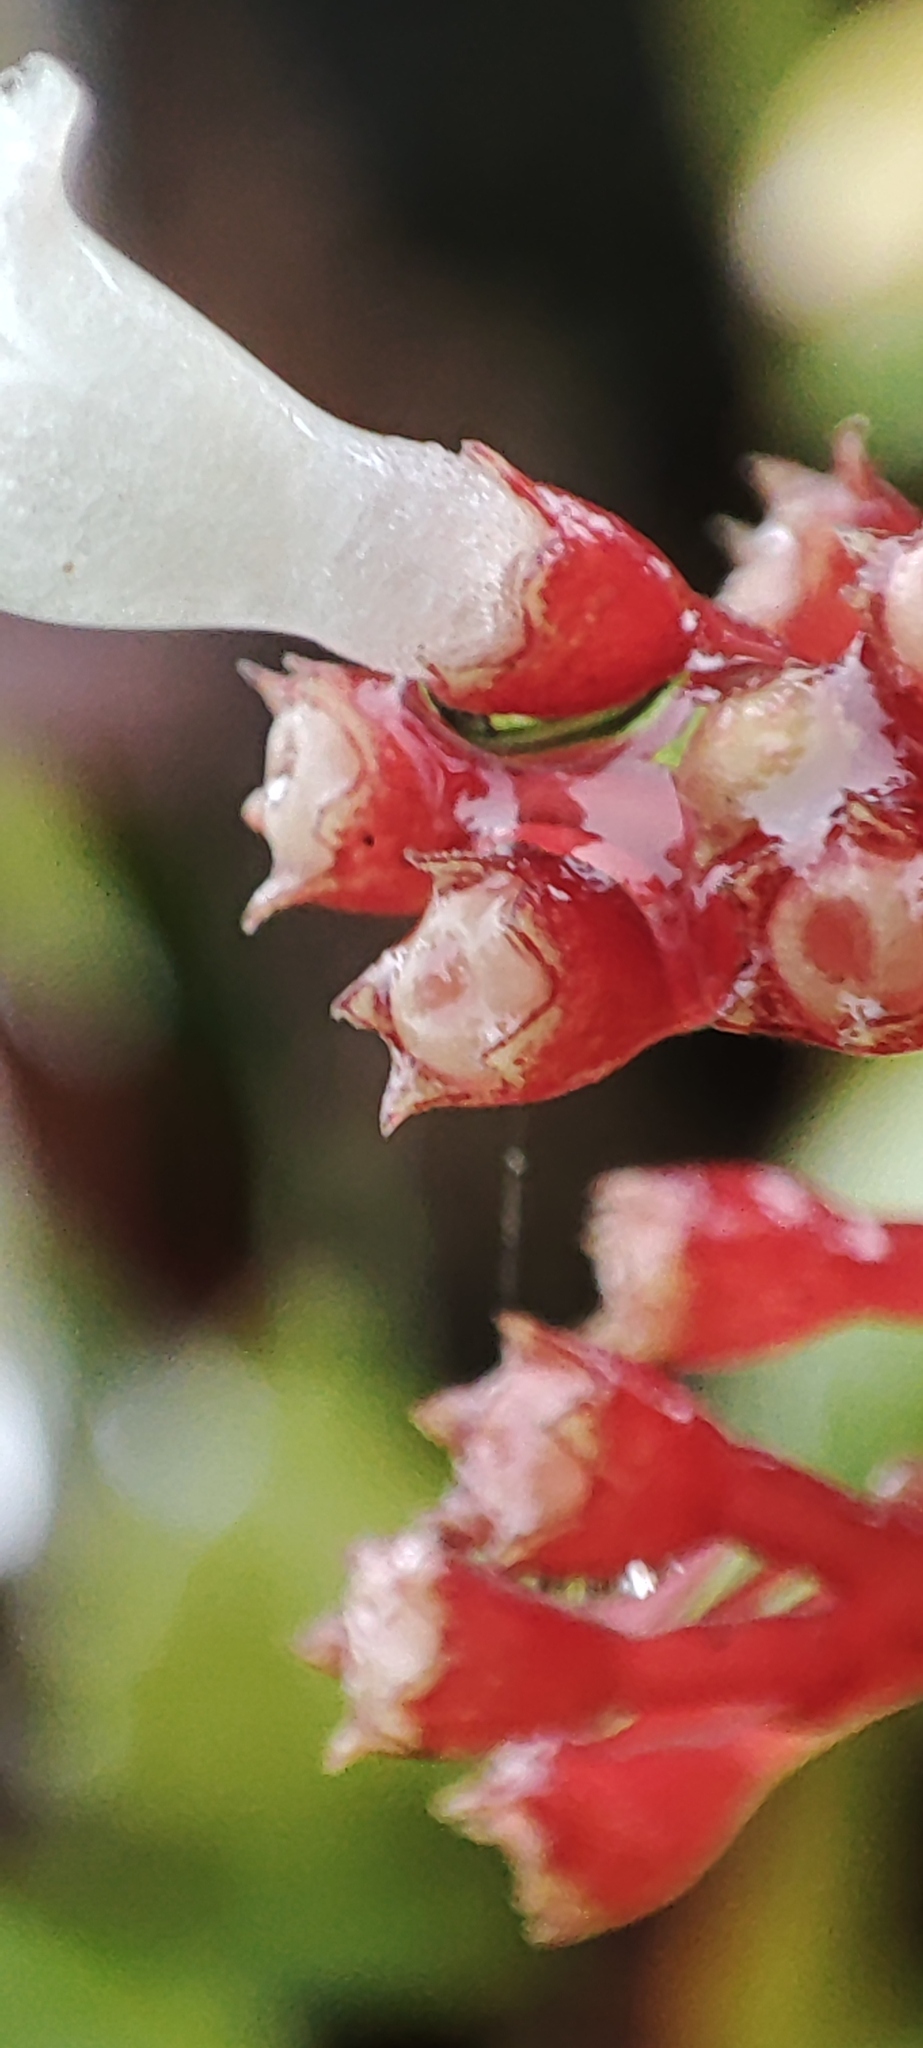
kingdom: Plantae
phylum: Tracheophyta
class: Magnoliopsida
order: Gentianales
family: Rubiaceae
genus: Notopleura
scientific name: Notopleura parasitica
